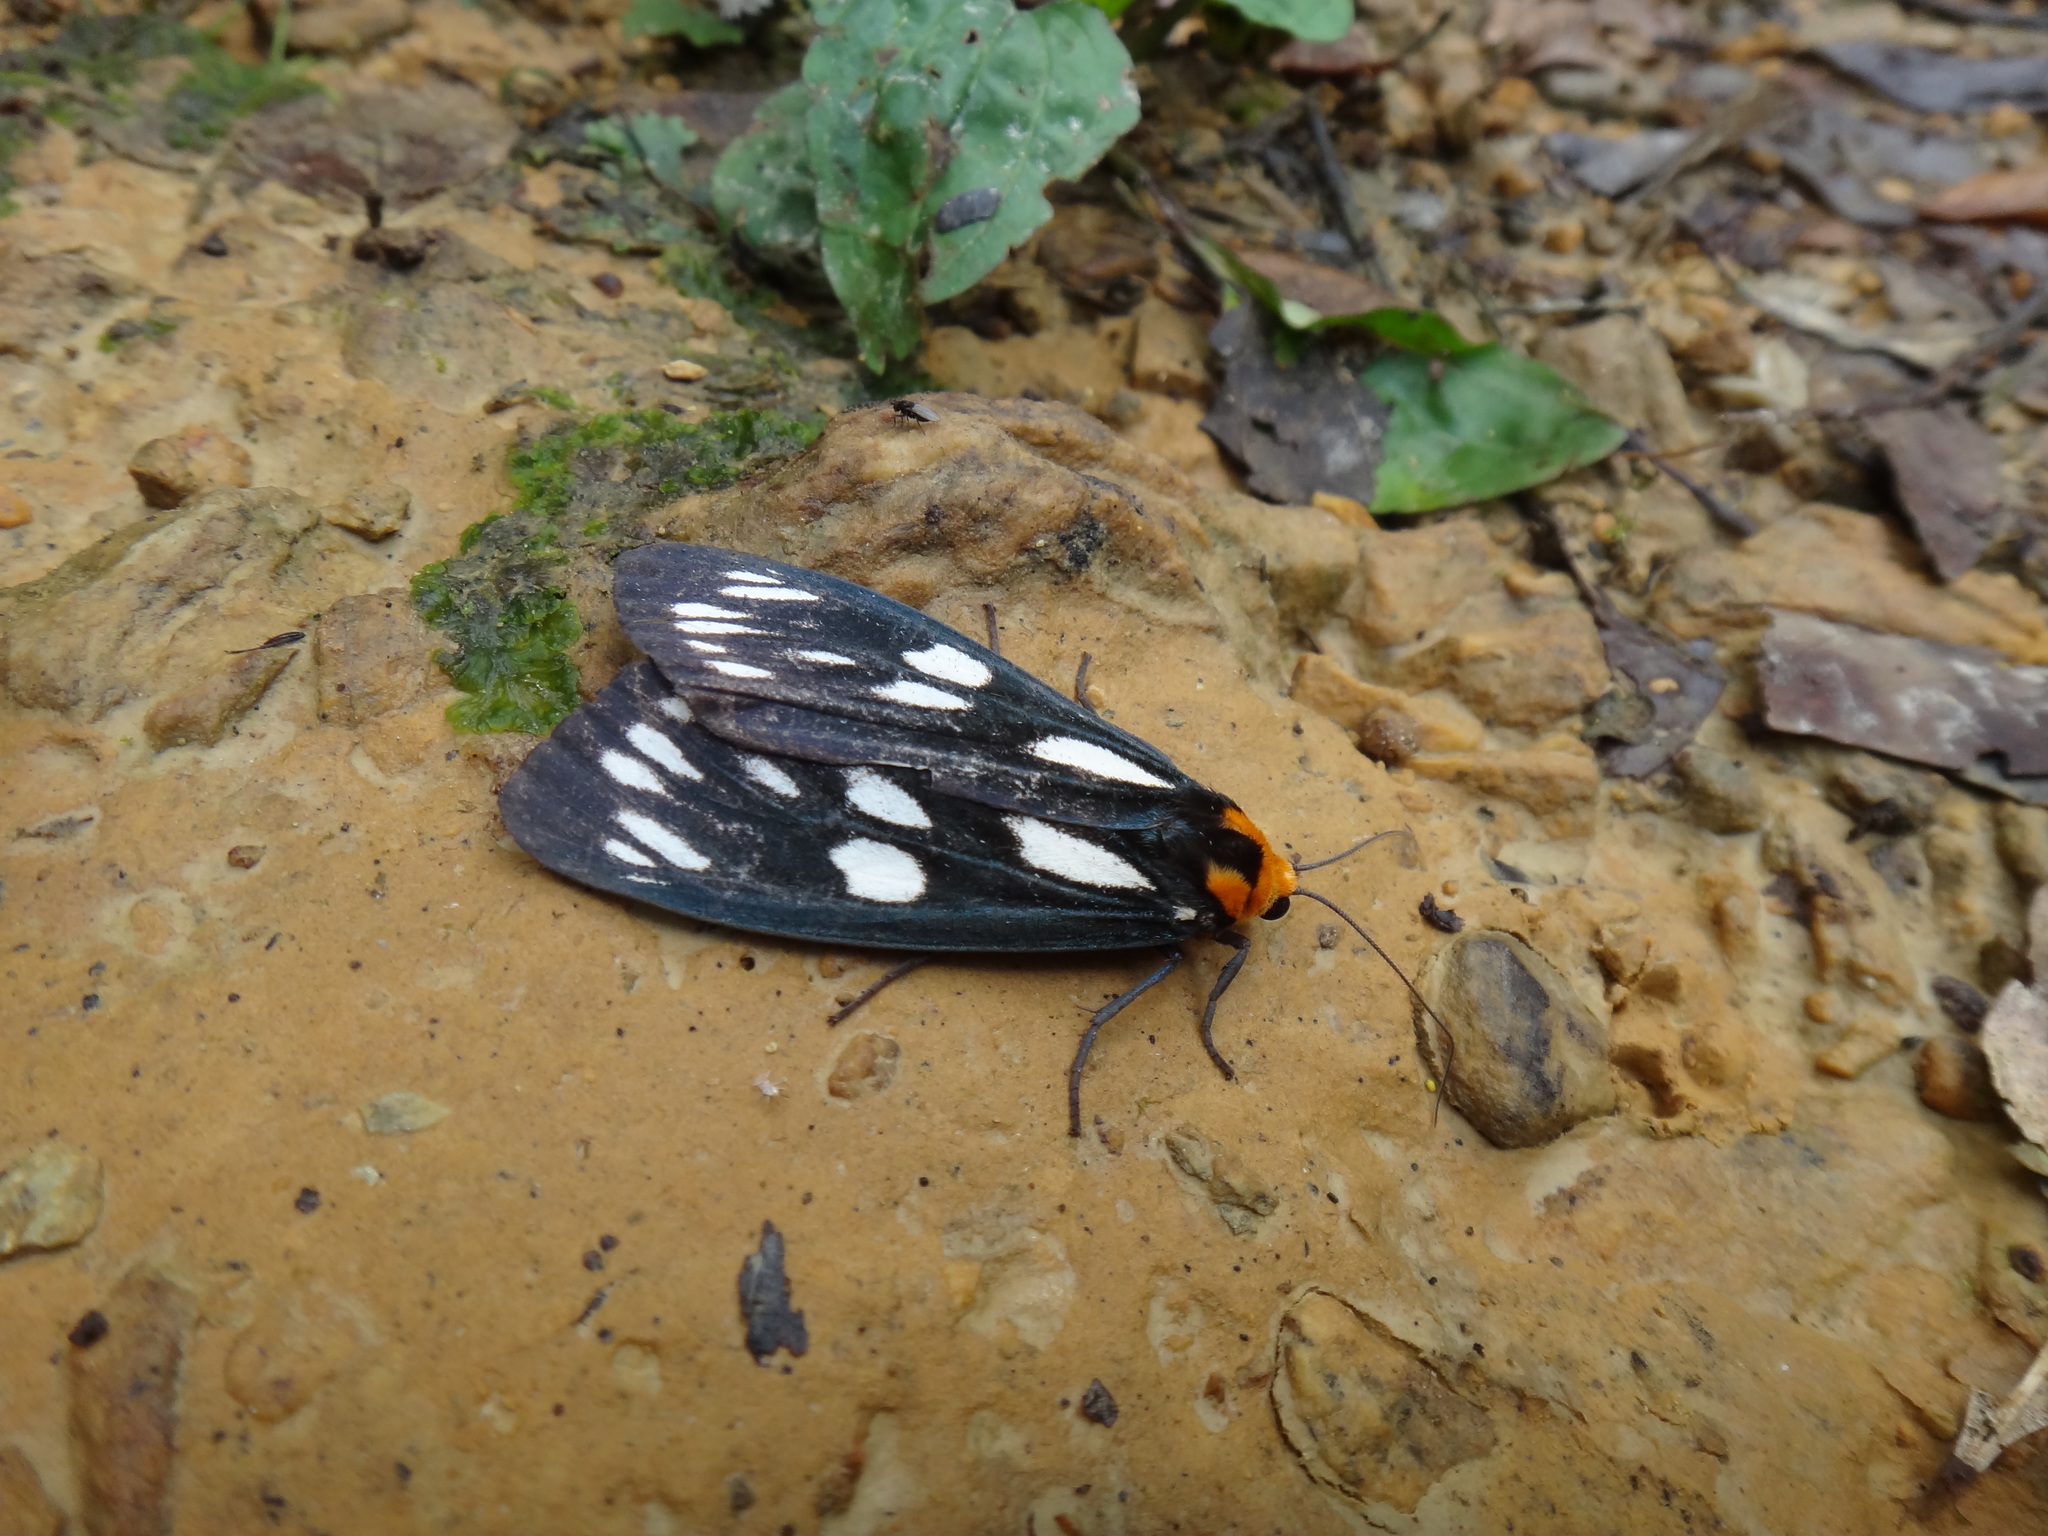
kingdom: Animalia
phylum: Arthropoda
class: Insecta
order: Lepidoptera
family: Erebidae
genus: Macrobrochis
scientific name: Macrobrochis gigas
